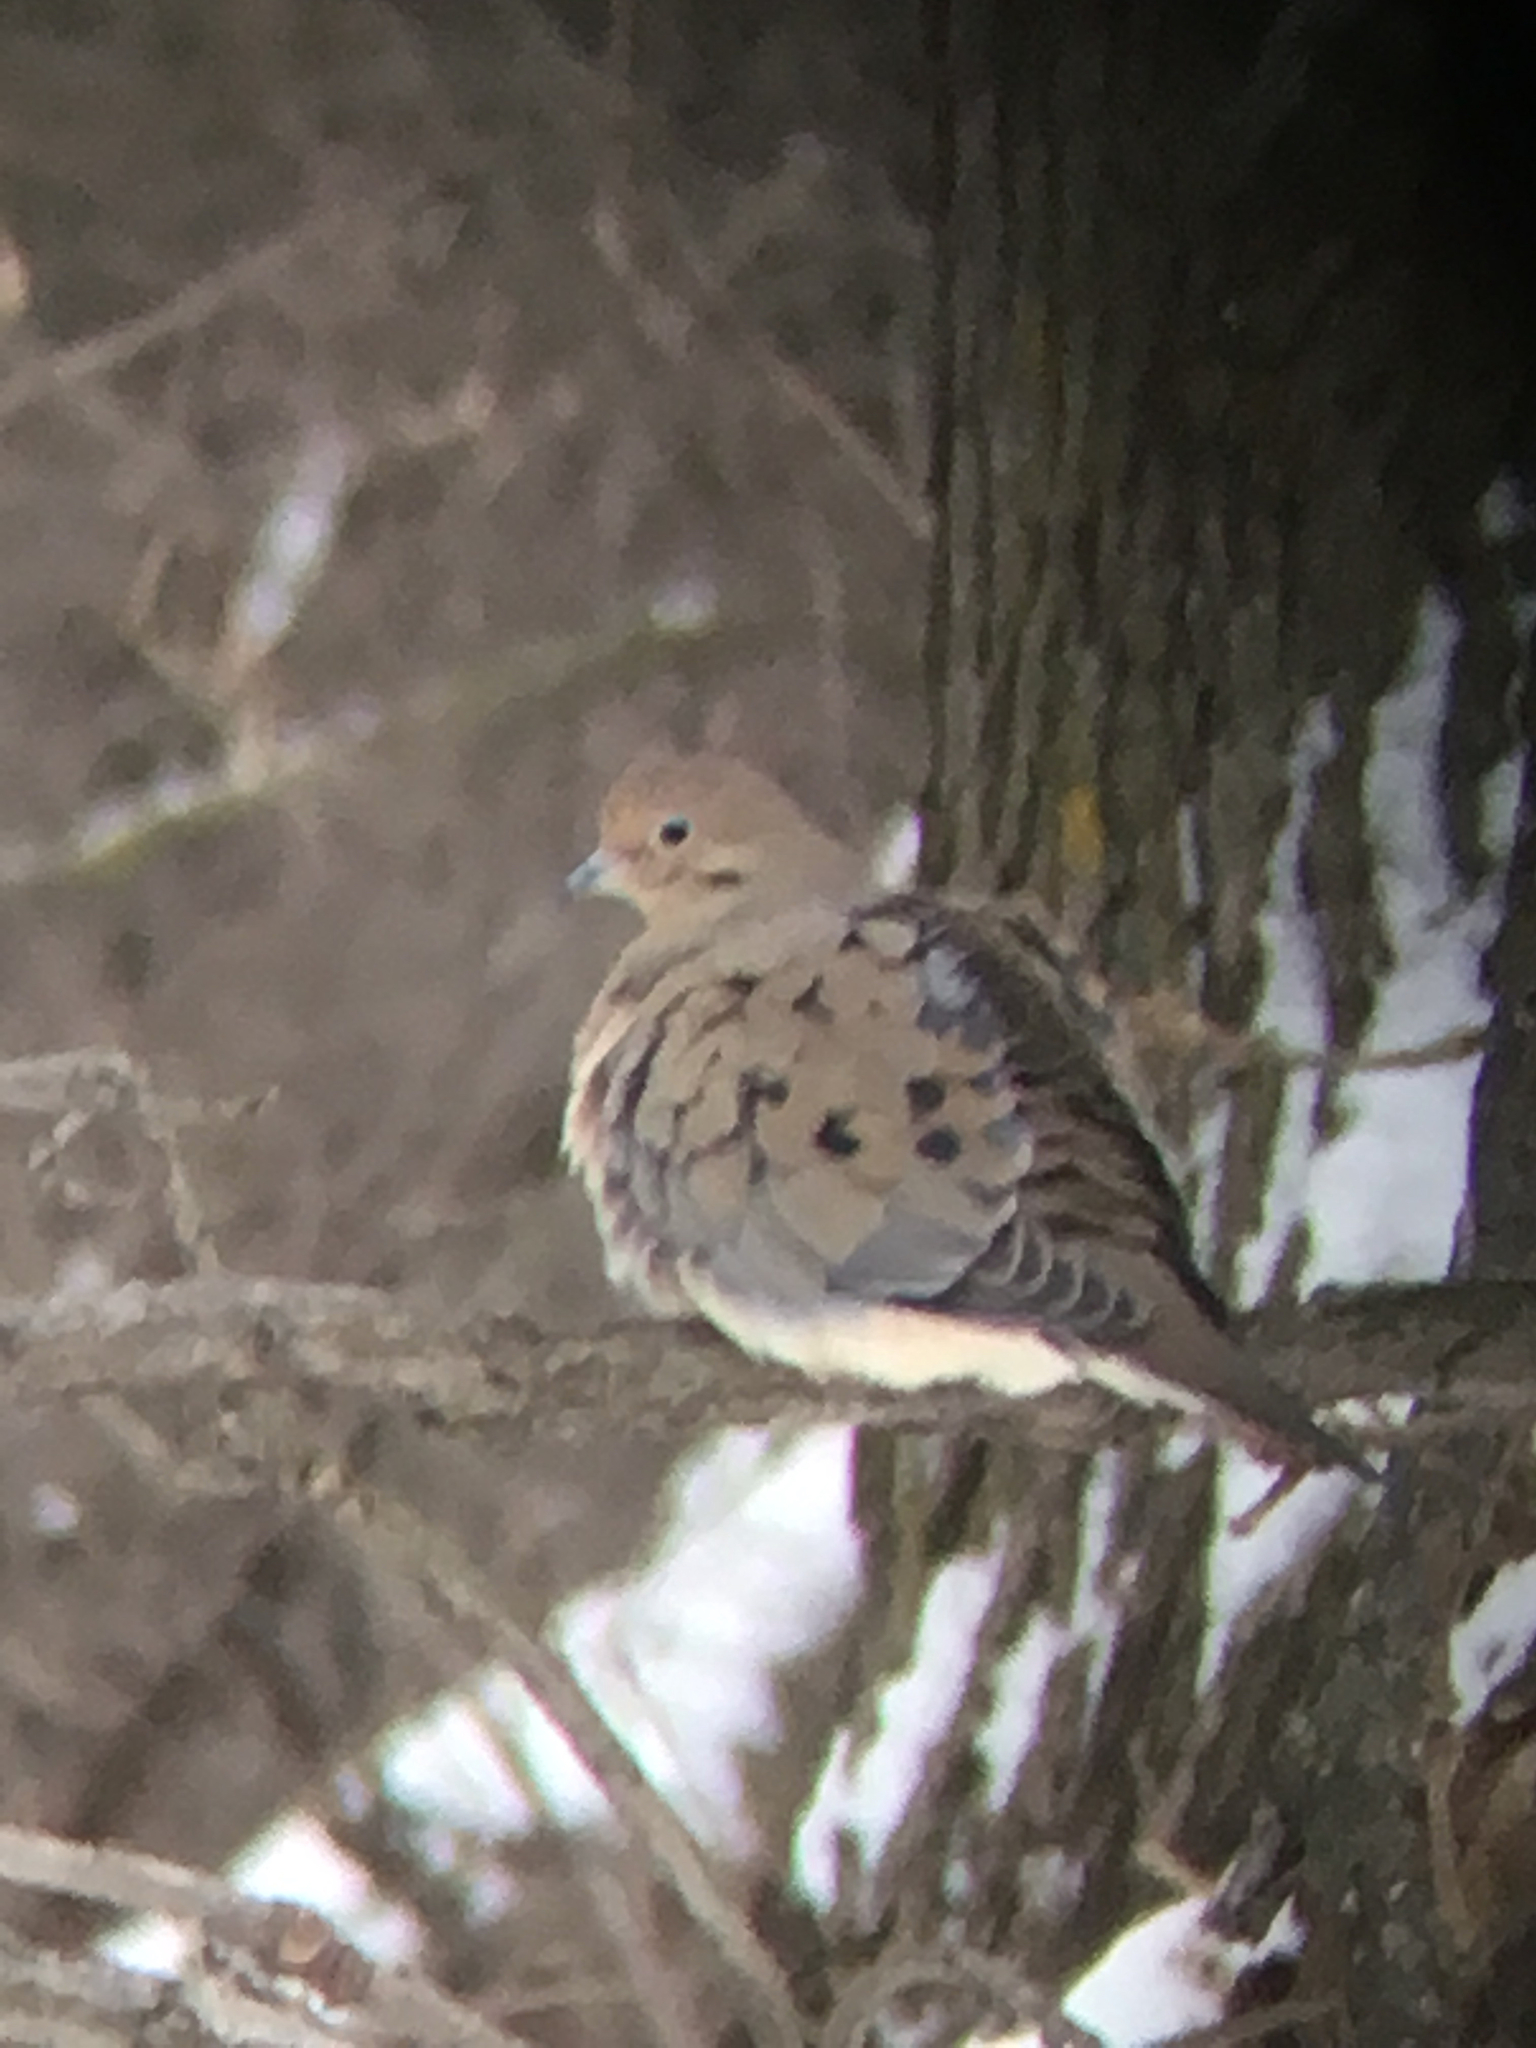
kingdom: Animalia
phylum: Chordata
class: Aves
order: Columbiformes
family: Columbidae
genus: Zenaida
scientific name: Zenaida macroura
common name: Mourning dove
